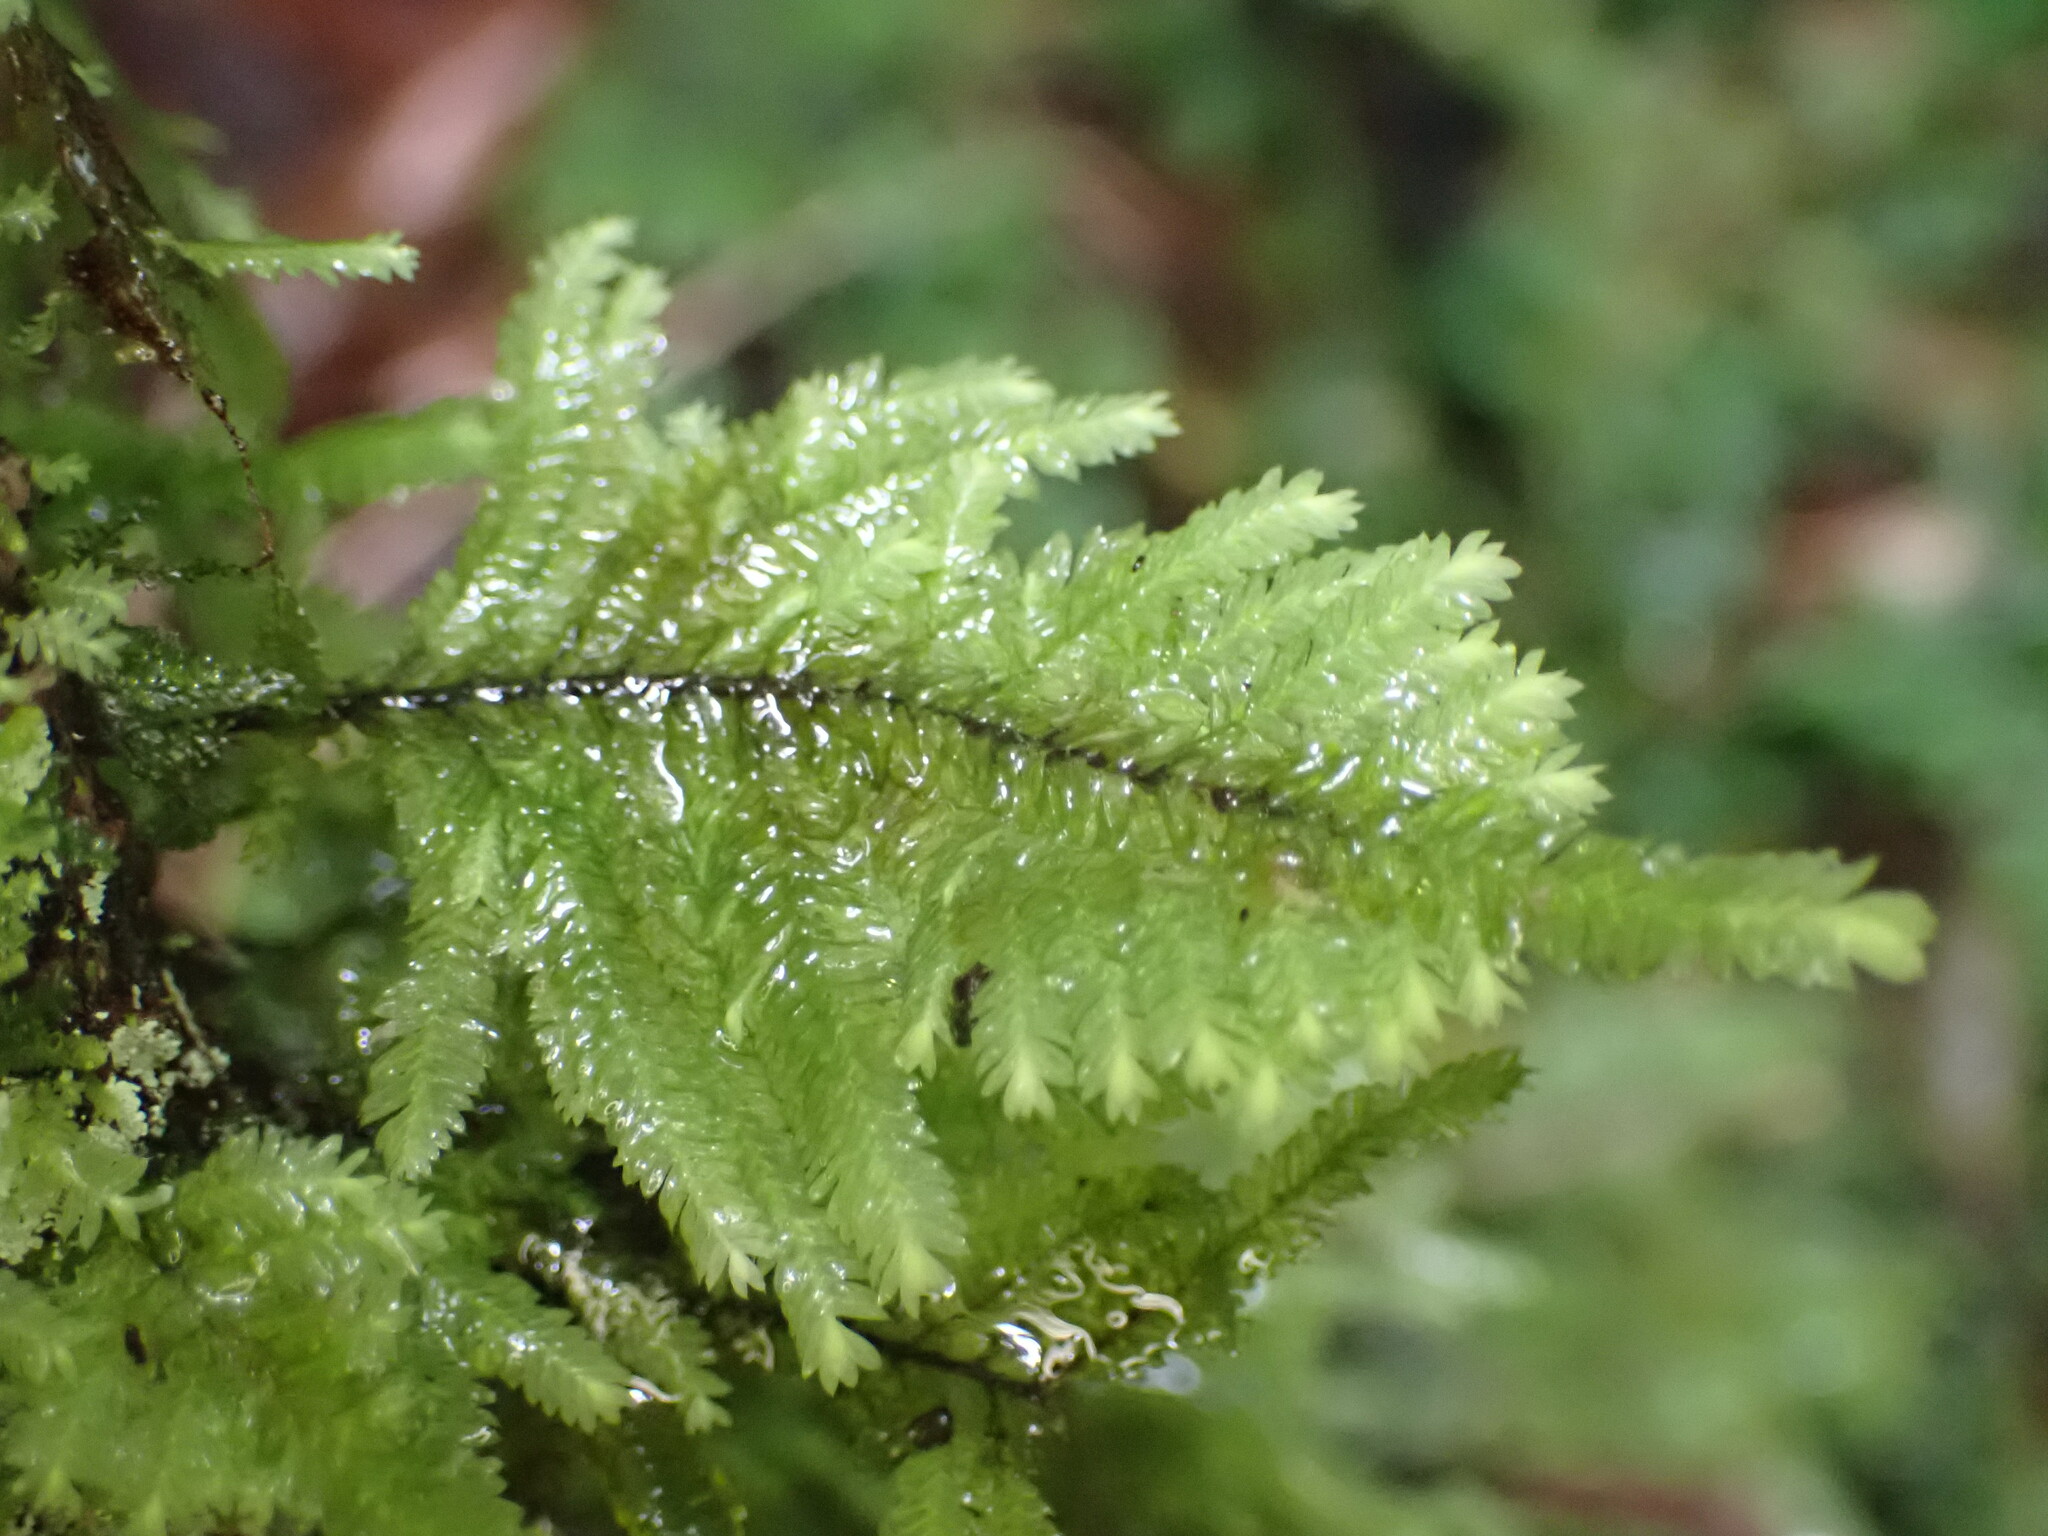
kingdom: Plantae
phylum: Bryophyta
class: Bryopsida
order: Hypopterygiales
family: Hypopterygiaceae
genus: Lopidium
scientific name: Lopidium concinnum
